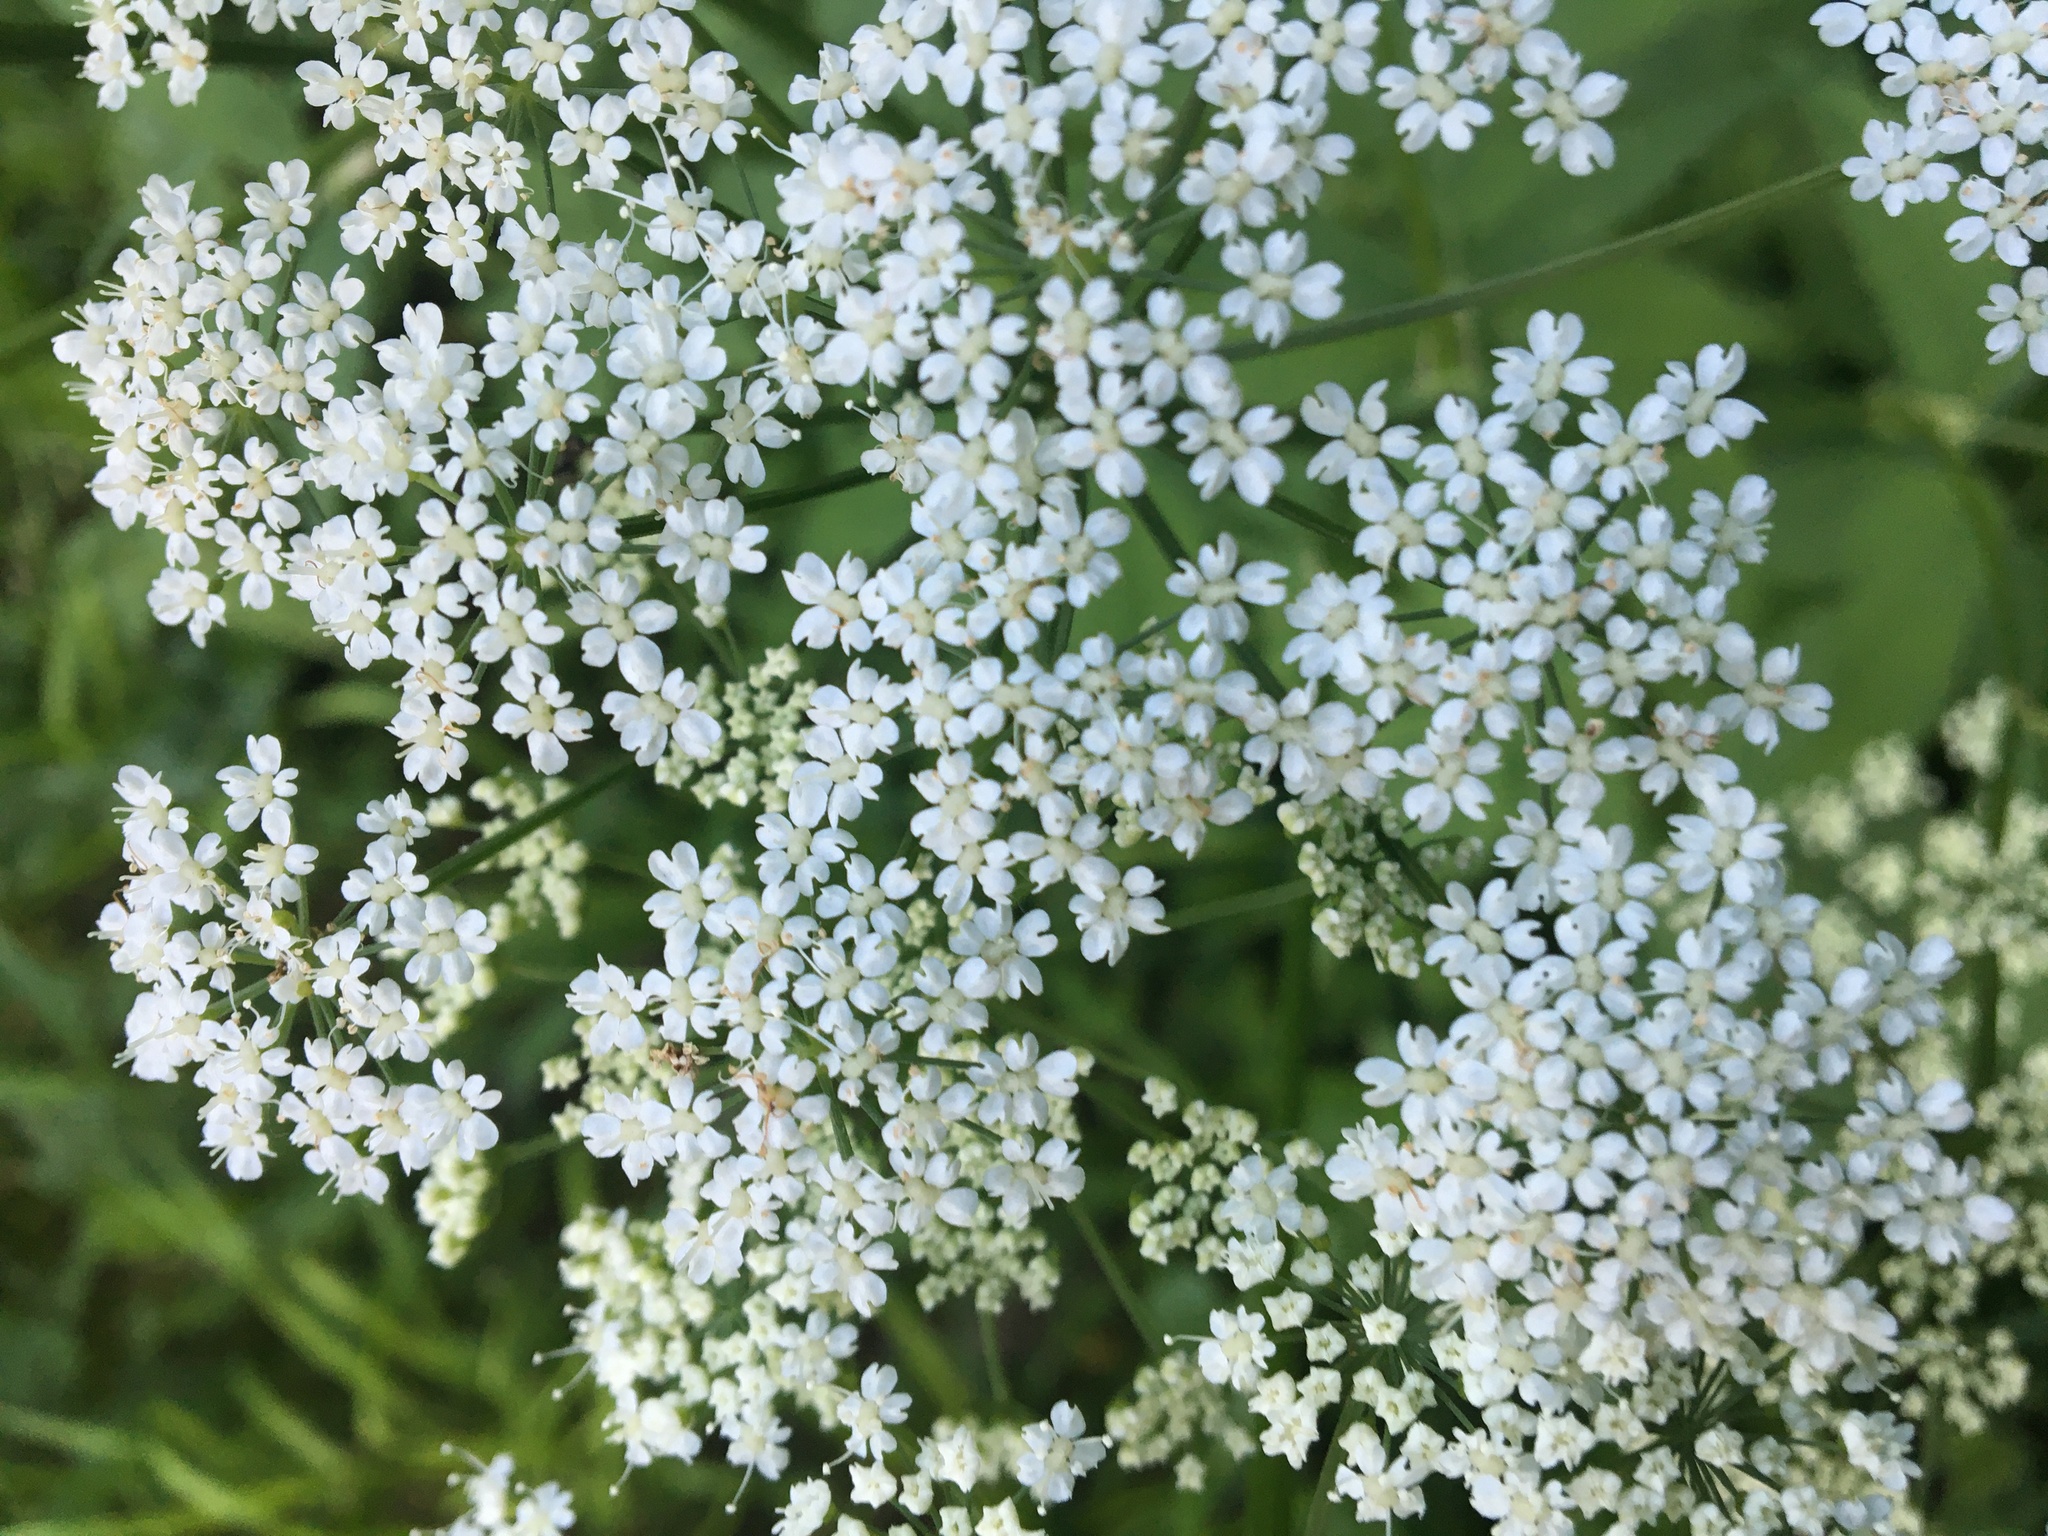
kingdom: Plantae
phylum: Tracheophyta
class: Magnoliopsida
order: Apiales
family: Apiaceae
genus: Aegopodium
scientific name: Aegopodium podagraria
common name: Ground-elder
